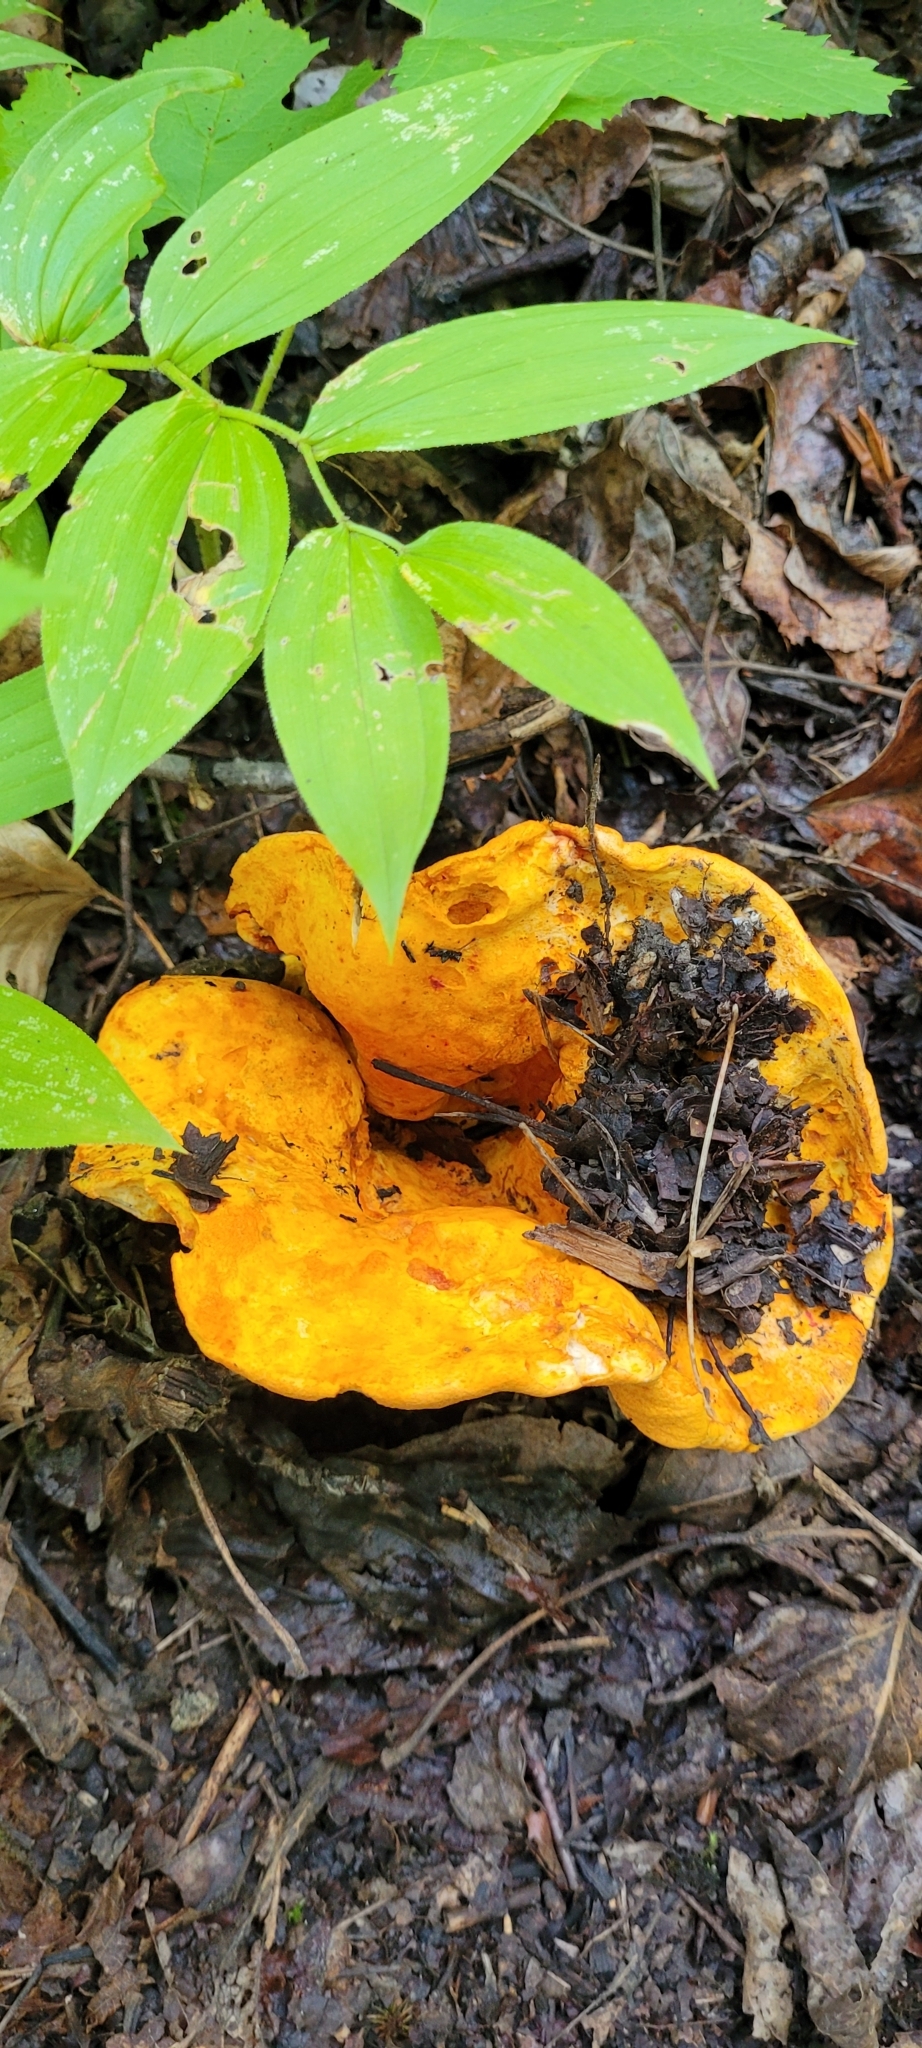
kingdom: Fungi
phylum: Ascomycota
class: Sordariomycetes
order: Hypocreales
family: Hypocreaceae
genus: Hypomyces
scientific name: Hypomyces lactifluorum
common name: Lobster mushroom
